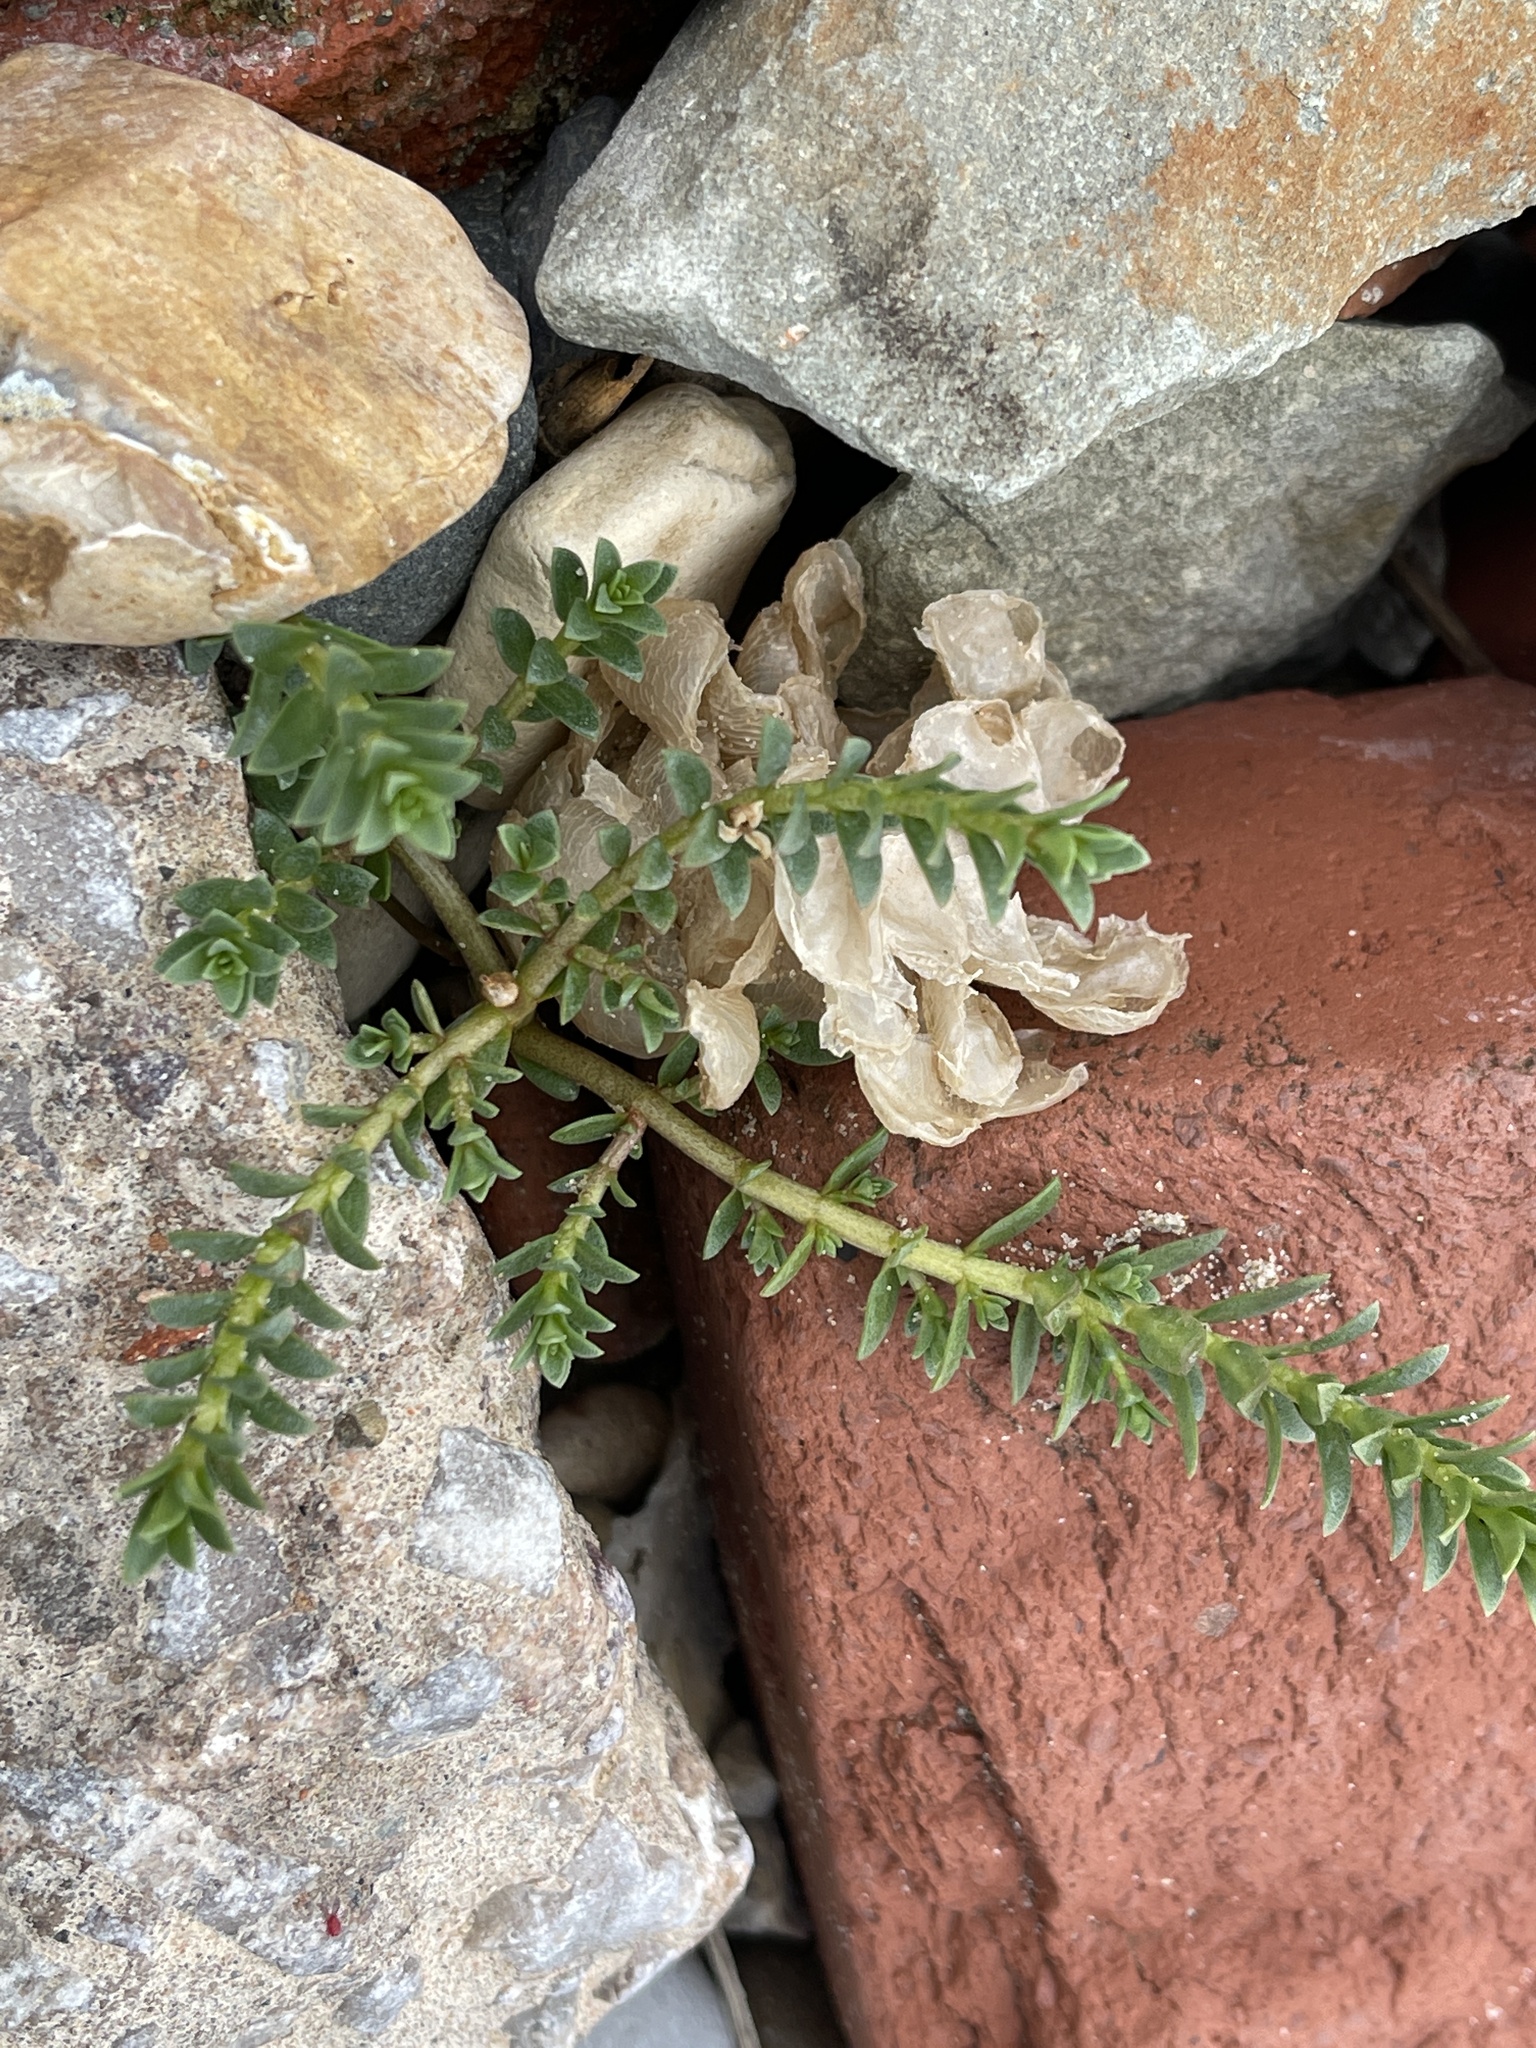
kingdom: Plantae
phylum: Tracheophyta
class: Magnoliopsida
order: Ericales
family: Primulaceae
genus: Lysimachia
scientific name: Lysimachia maritima
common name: Sea milkwort
